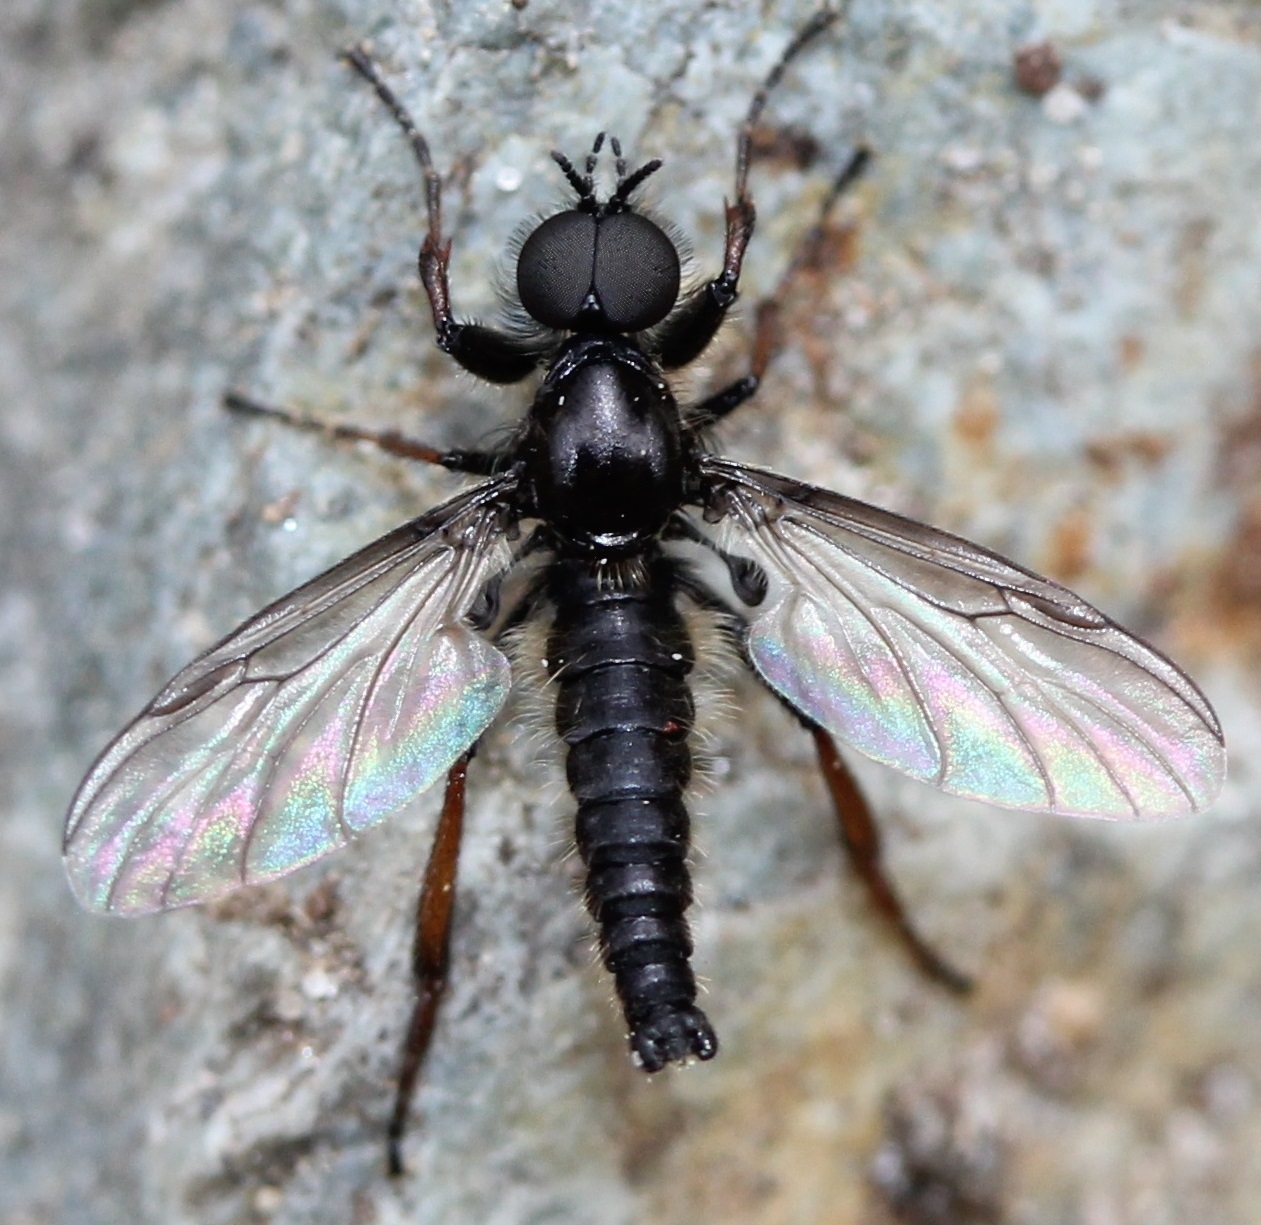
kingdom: Animalia
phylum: Arthropoda
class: Insecta
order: Diptera
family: Bibionidae
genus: Bibio
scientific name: Bibio lanigerus
